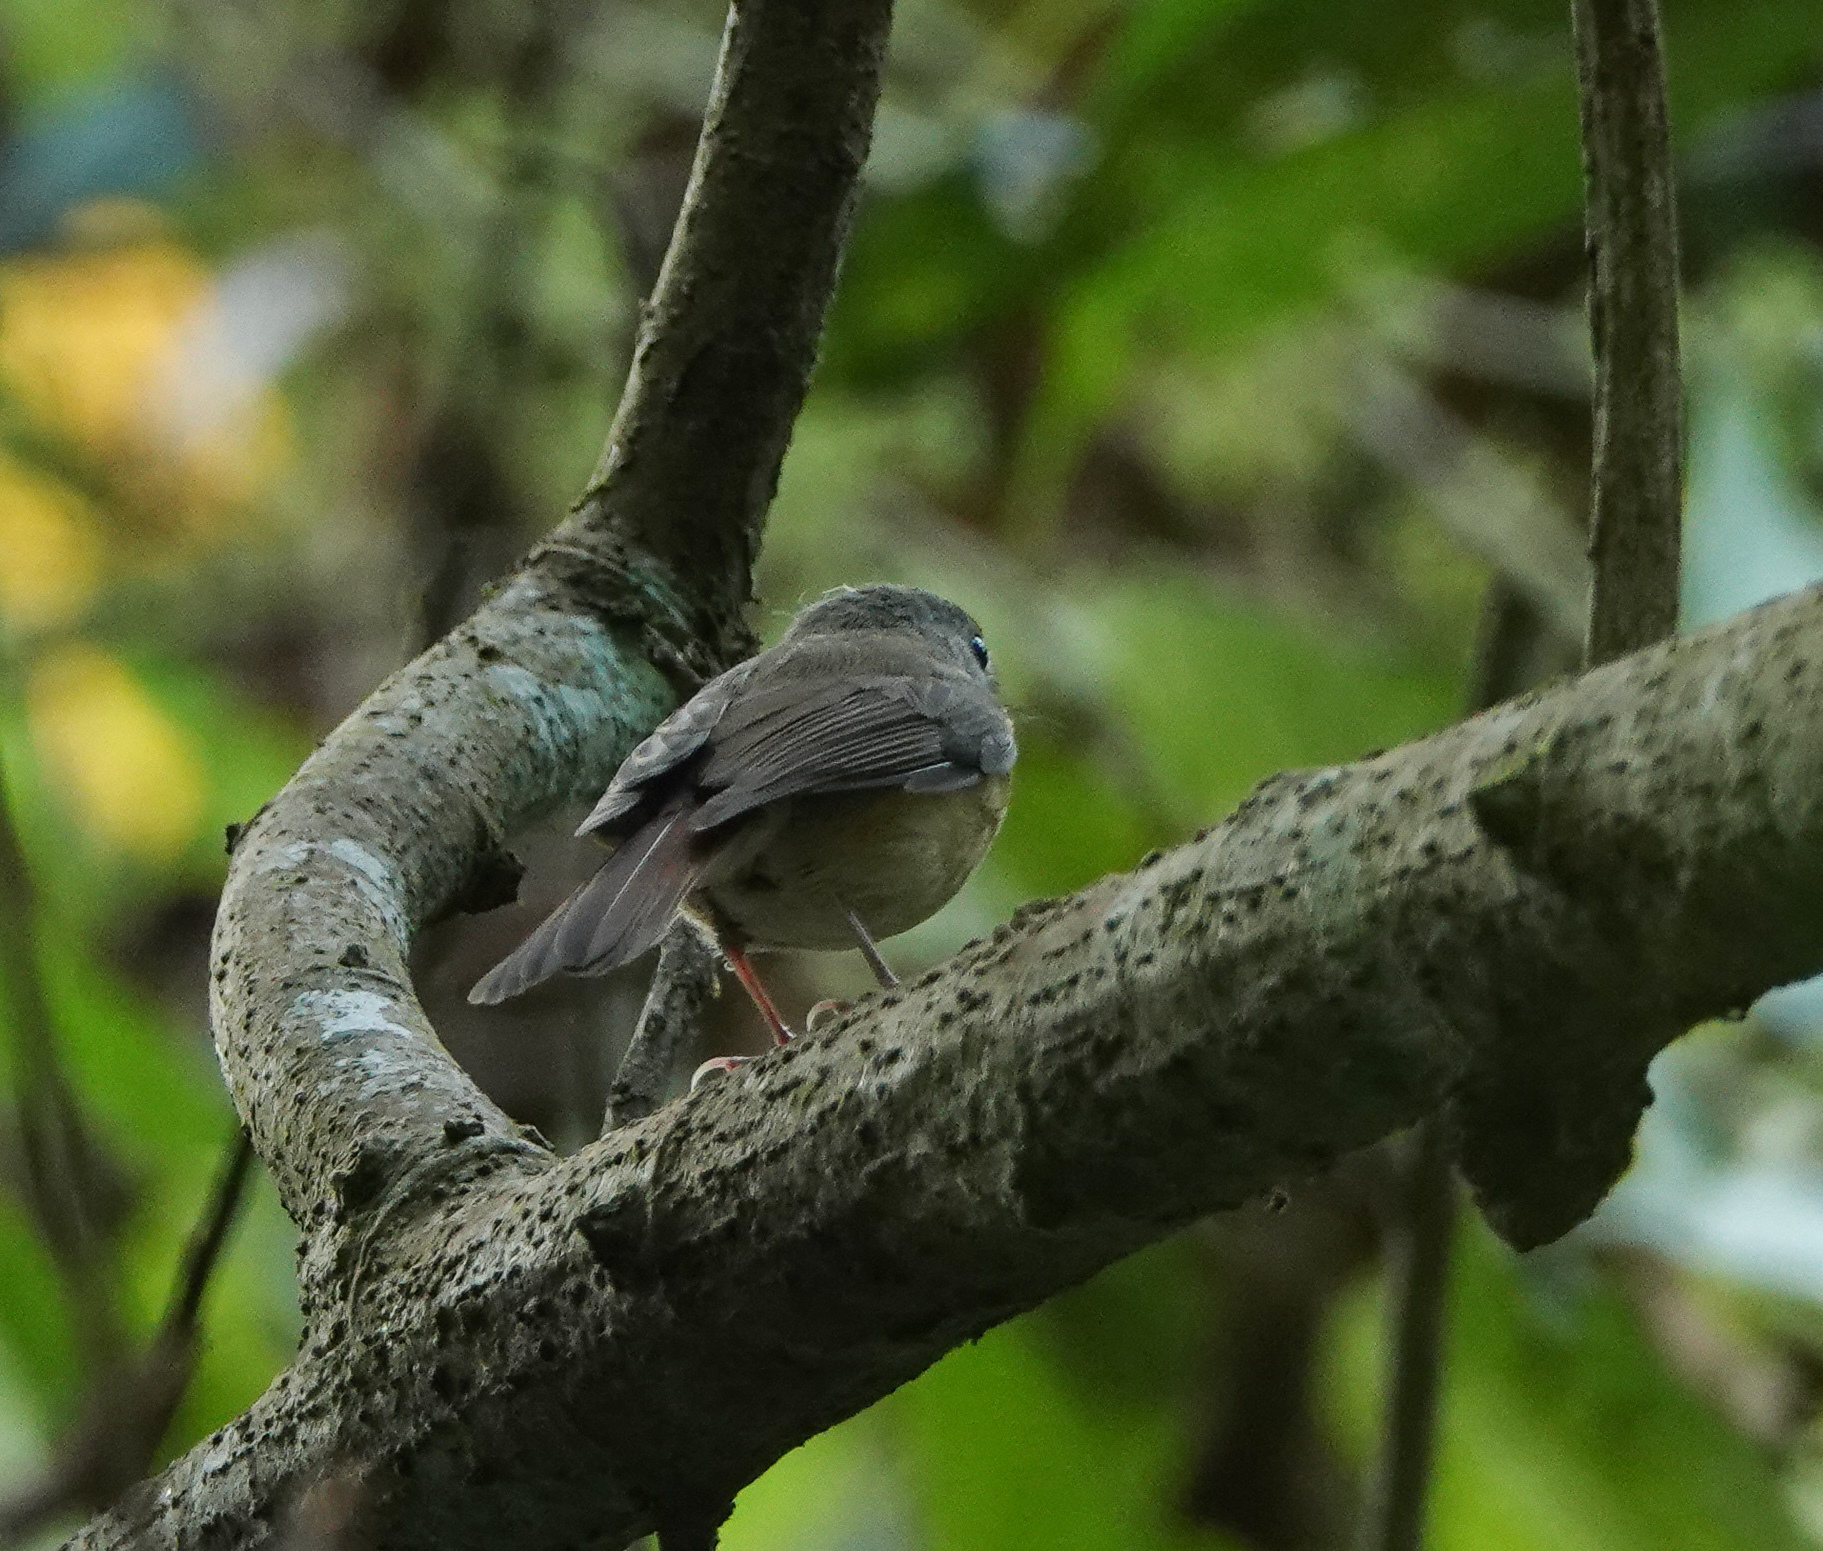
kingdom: Animalia
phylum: Chordata
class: Aves
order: Passeriformes
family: Muscicapidae
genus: Cyornis
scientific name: Cyornis poliogenys
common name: Pale-chinned blue flycatcher
